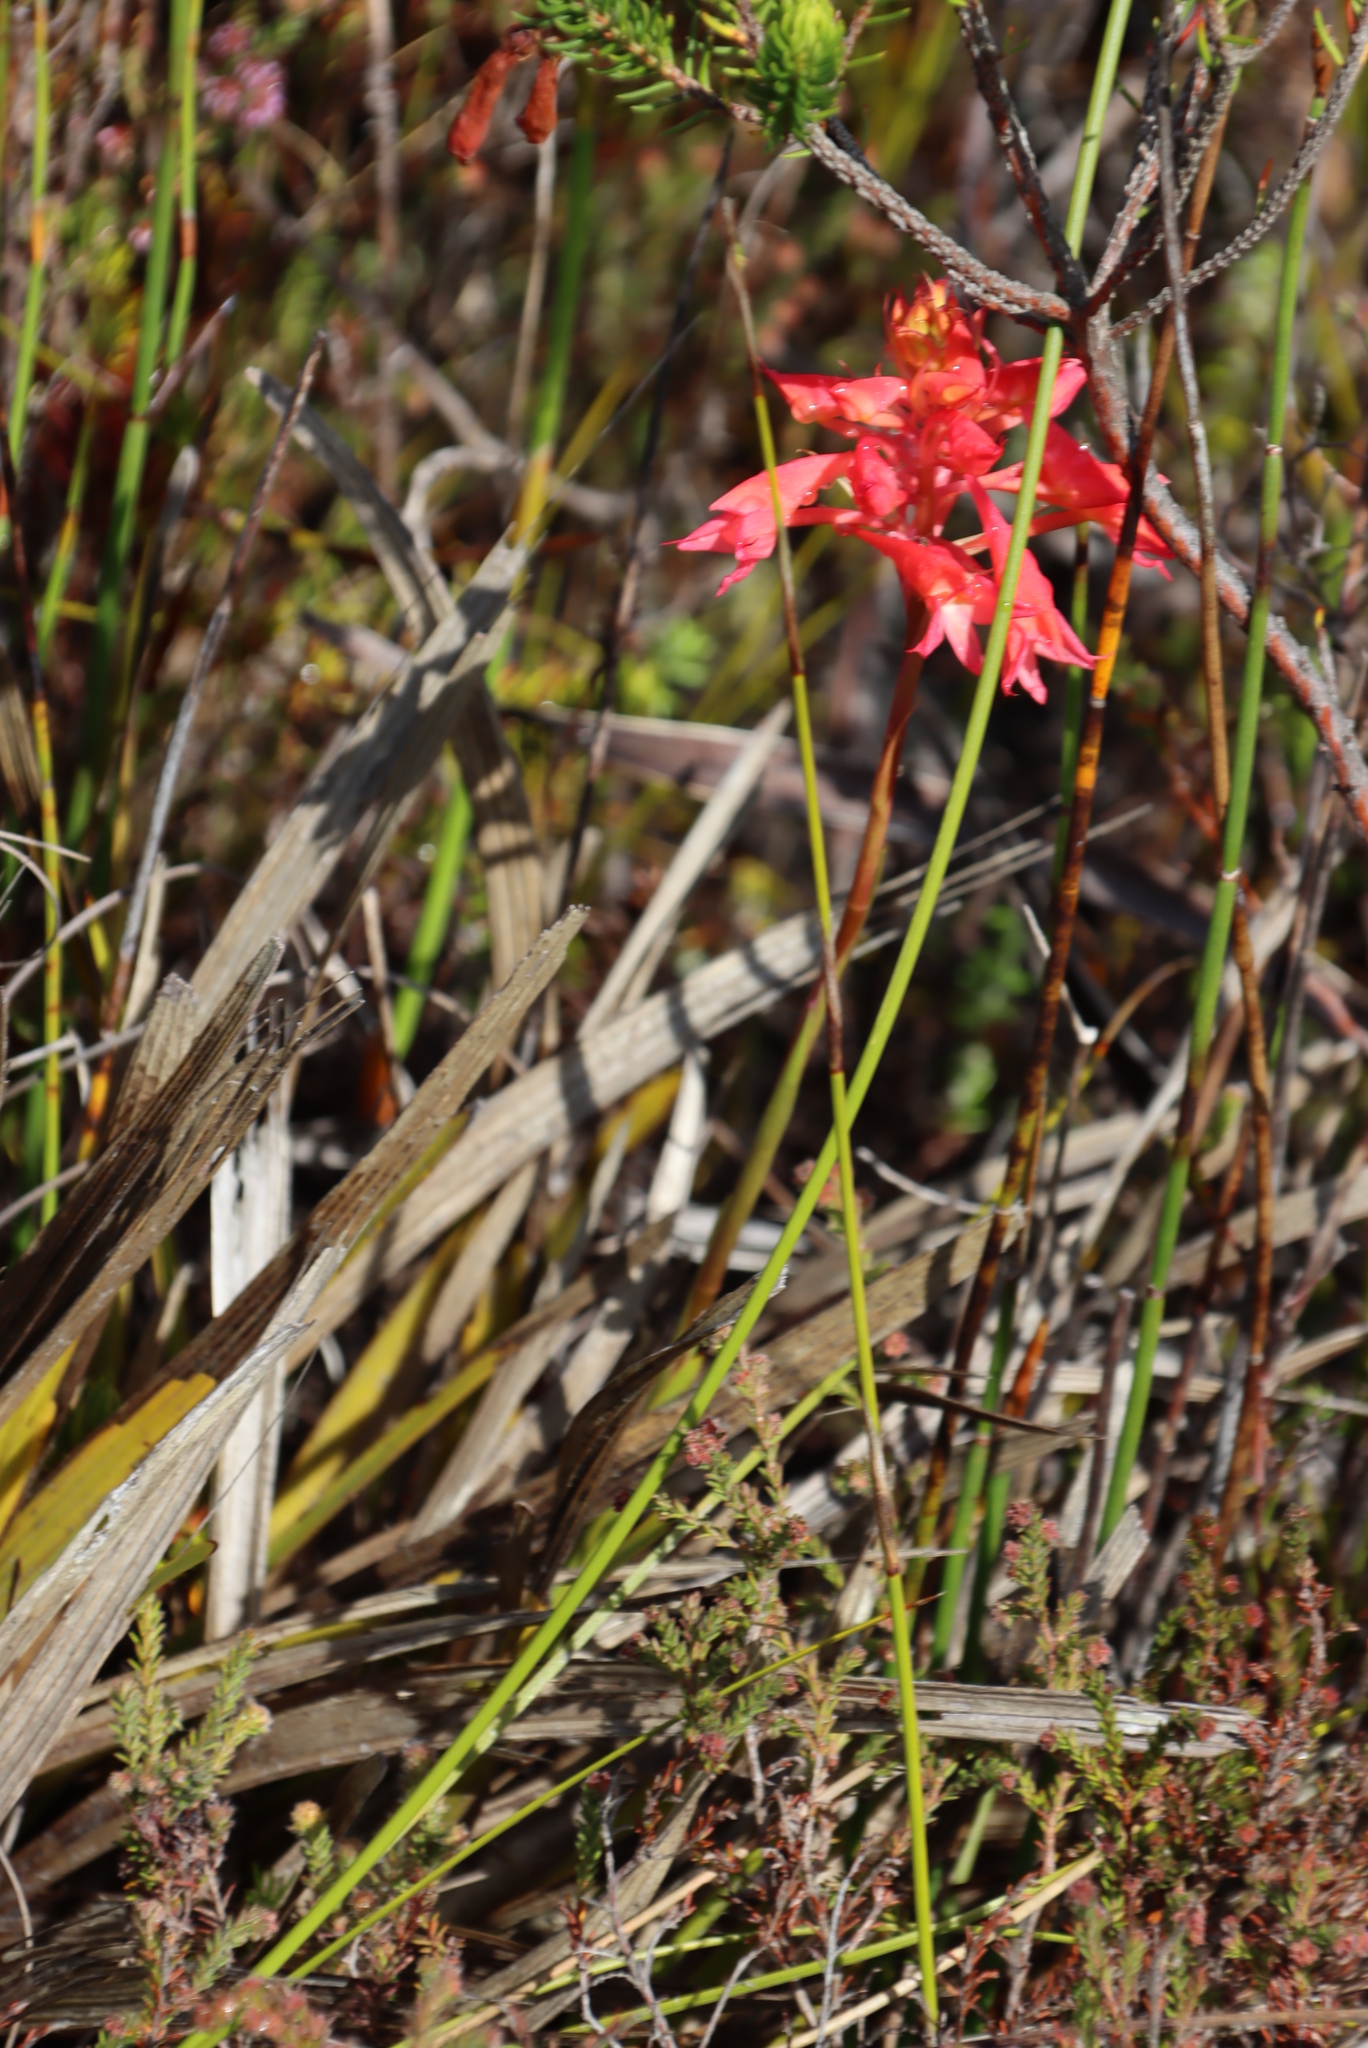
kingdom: Plantae
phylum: Tracheophyta
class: Liliopsida
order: Asparagales
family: Orchidaceae
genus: Disa
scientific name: Disa ferruginea
